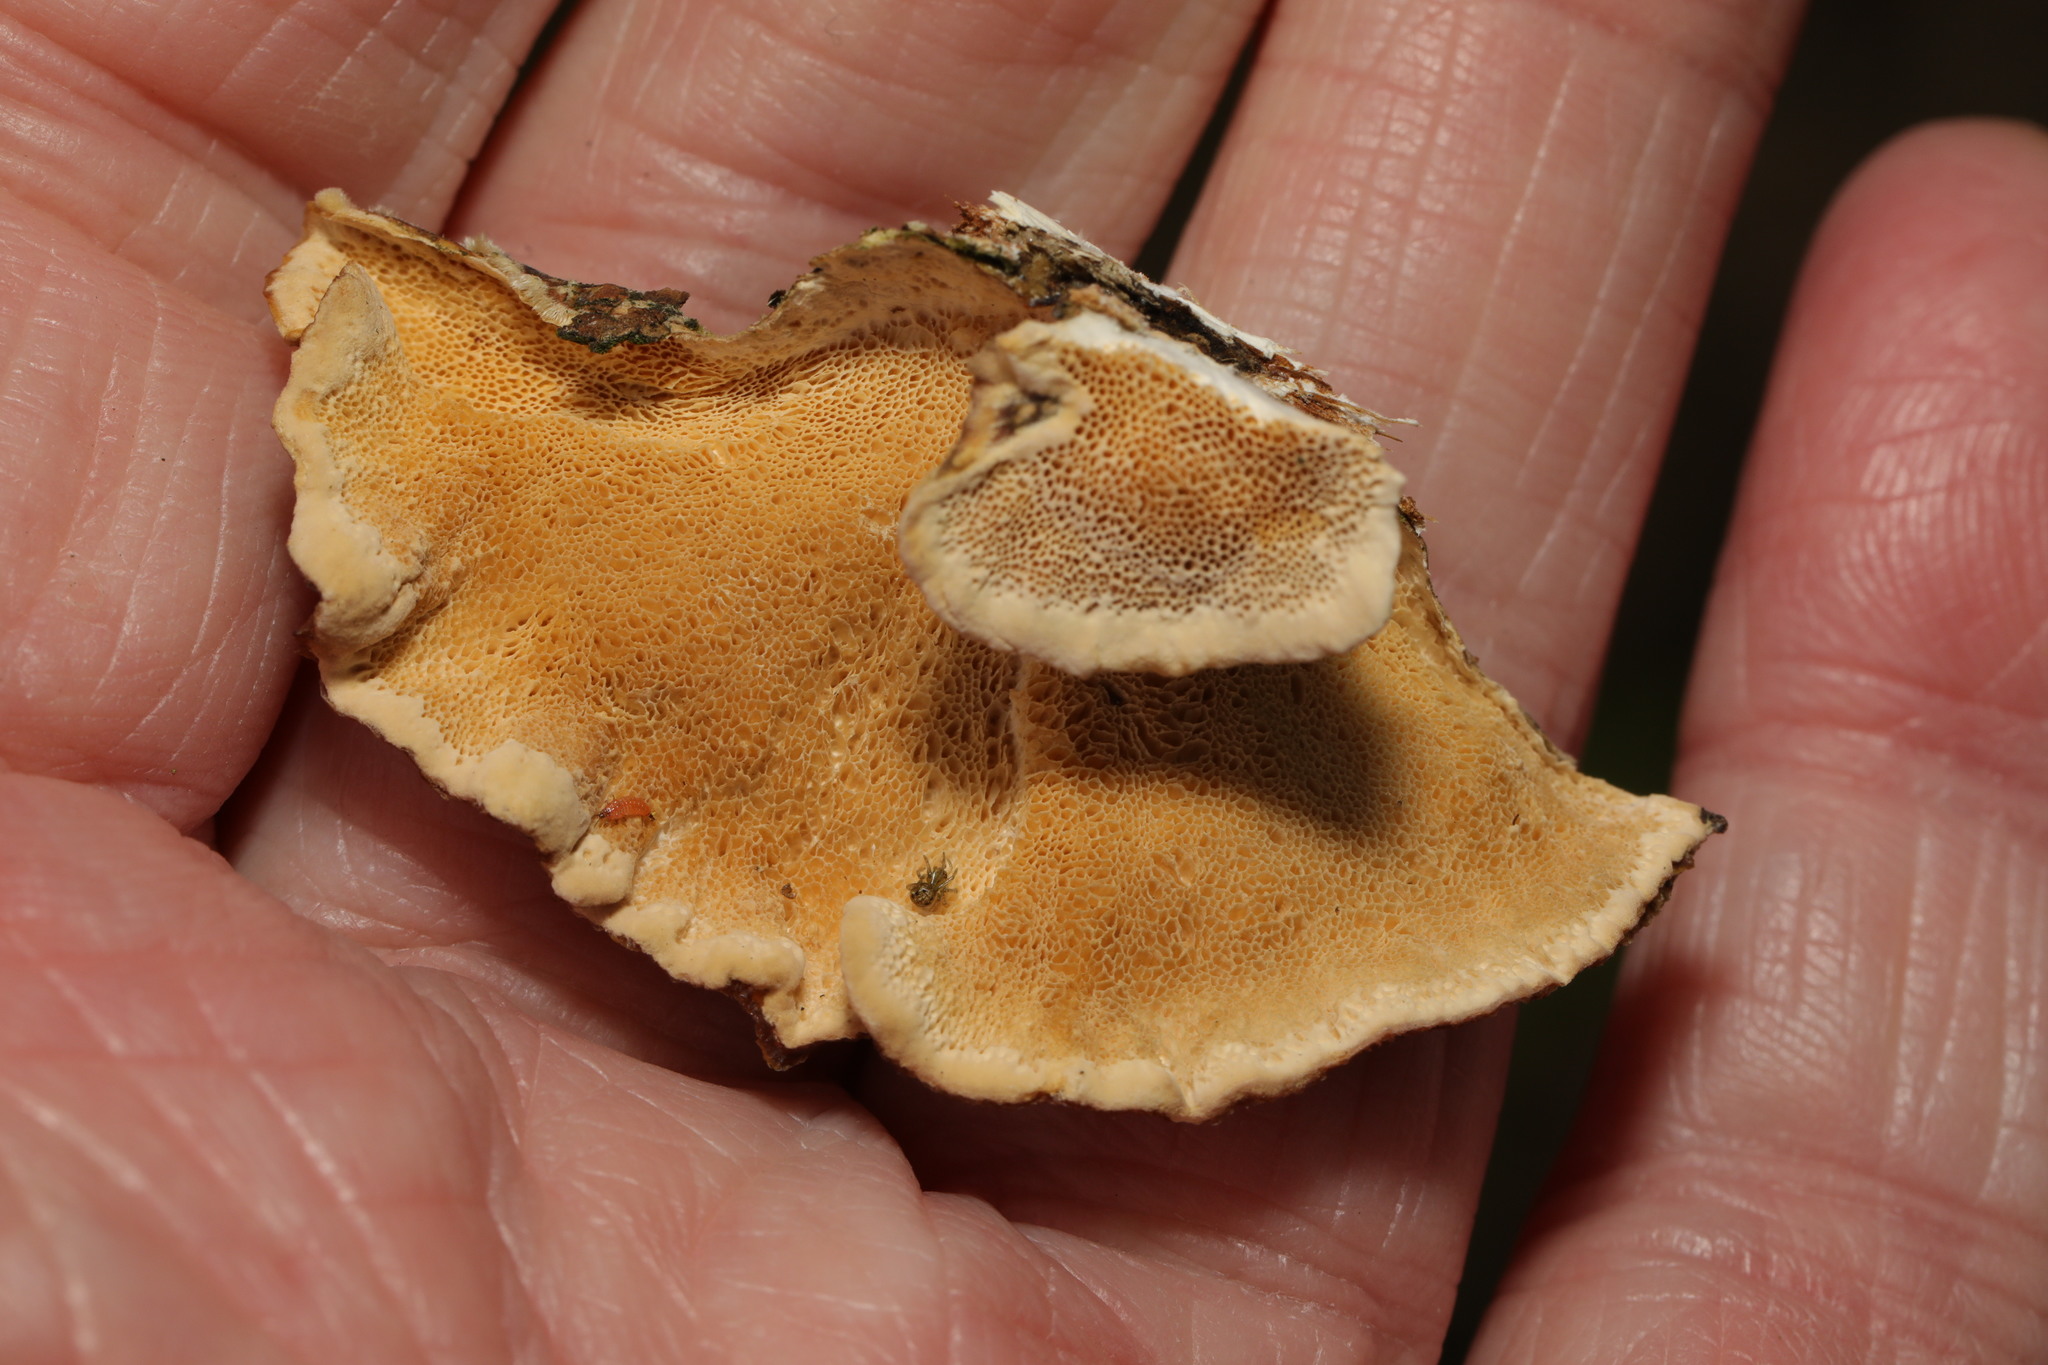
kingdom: Fungi
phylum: Basidiomycota
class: Agaricomycetes
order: Polyporales
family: Polyporaceae
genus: Trametes
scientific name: Trametes versicolor
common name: Turkeytail
